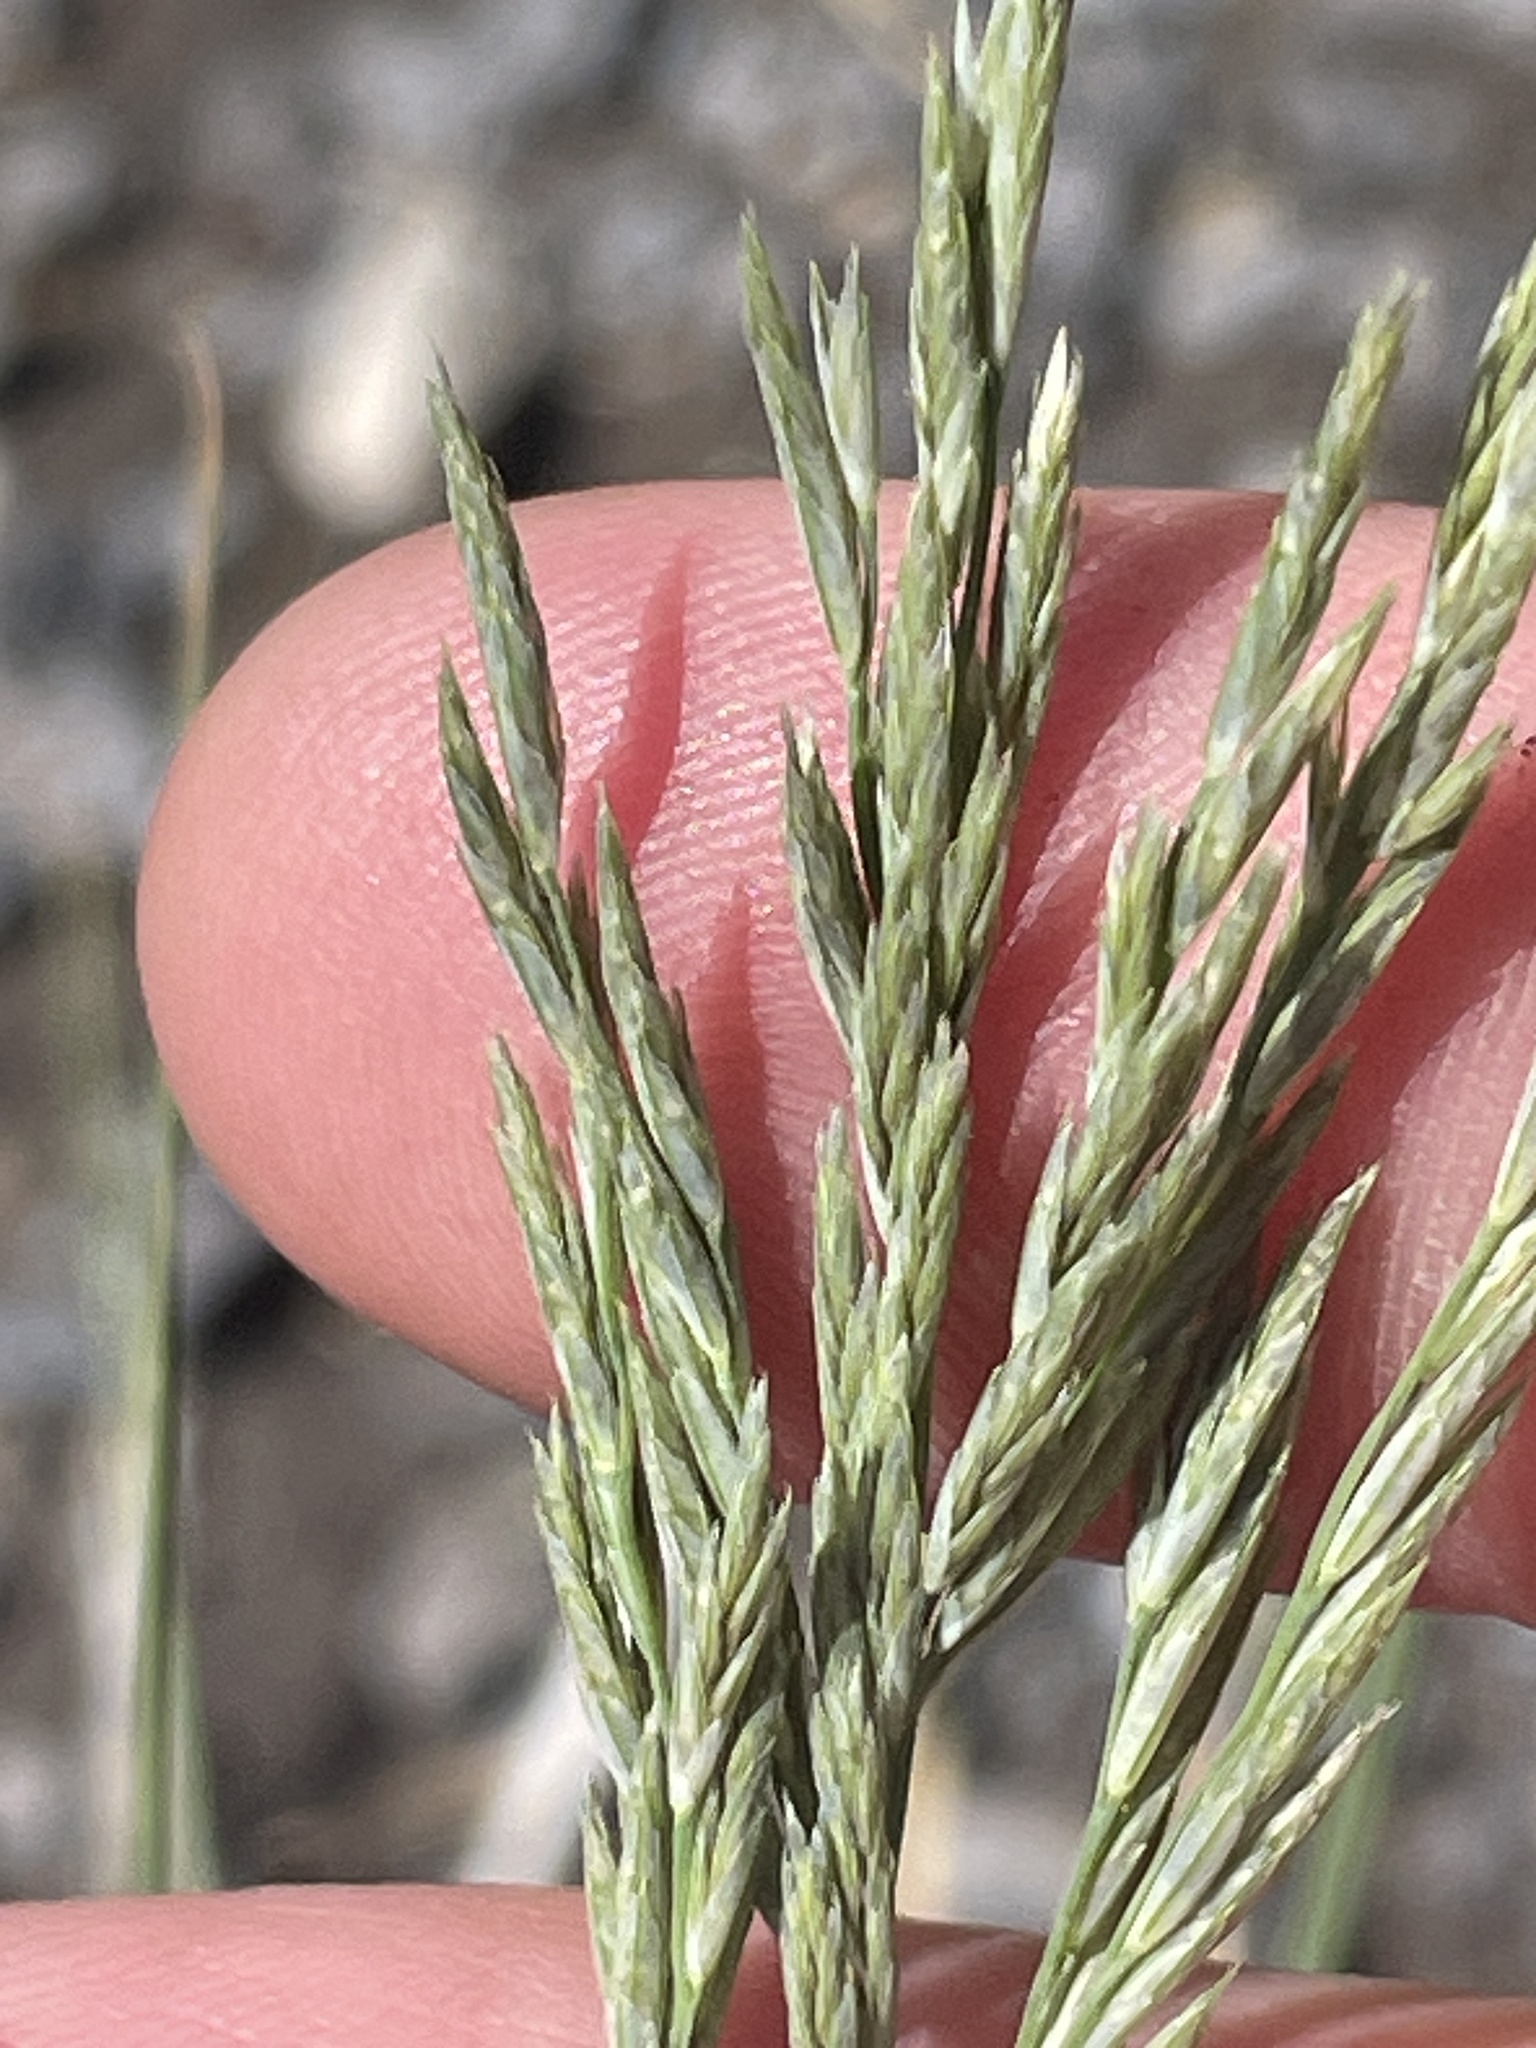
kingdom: Plantae
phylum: Tracheophyta
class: Liliopsida
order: Poales
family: Poaceae
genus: Diplachne
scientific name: Diplachne fusca
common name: Brown beetle grass
